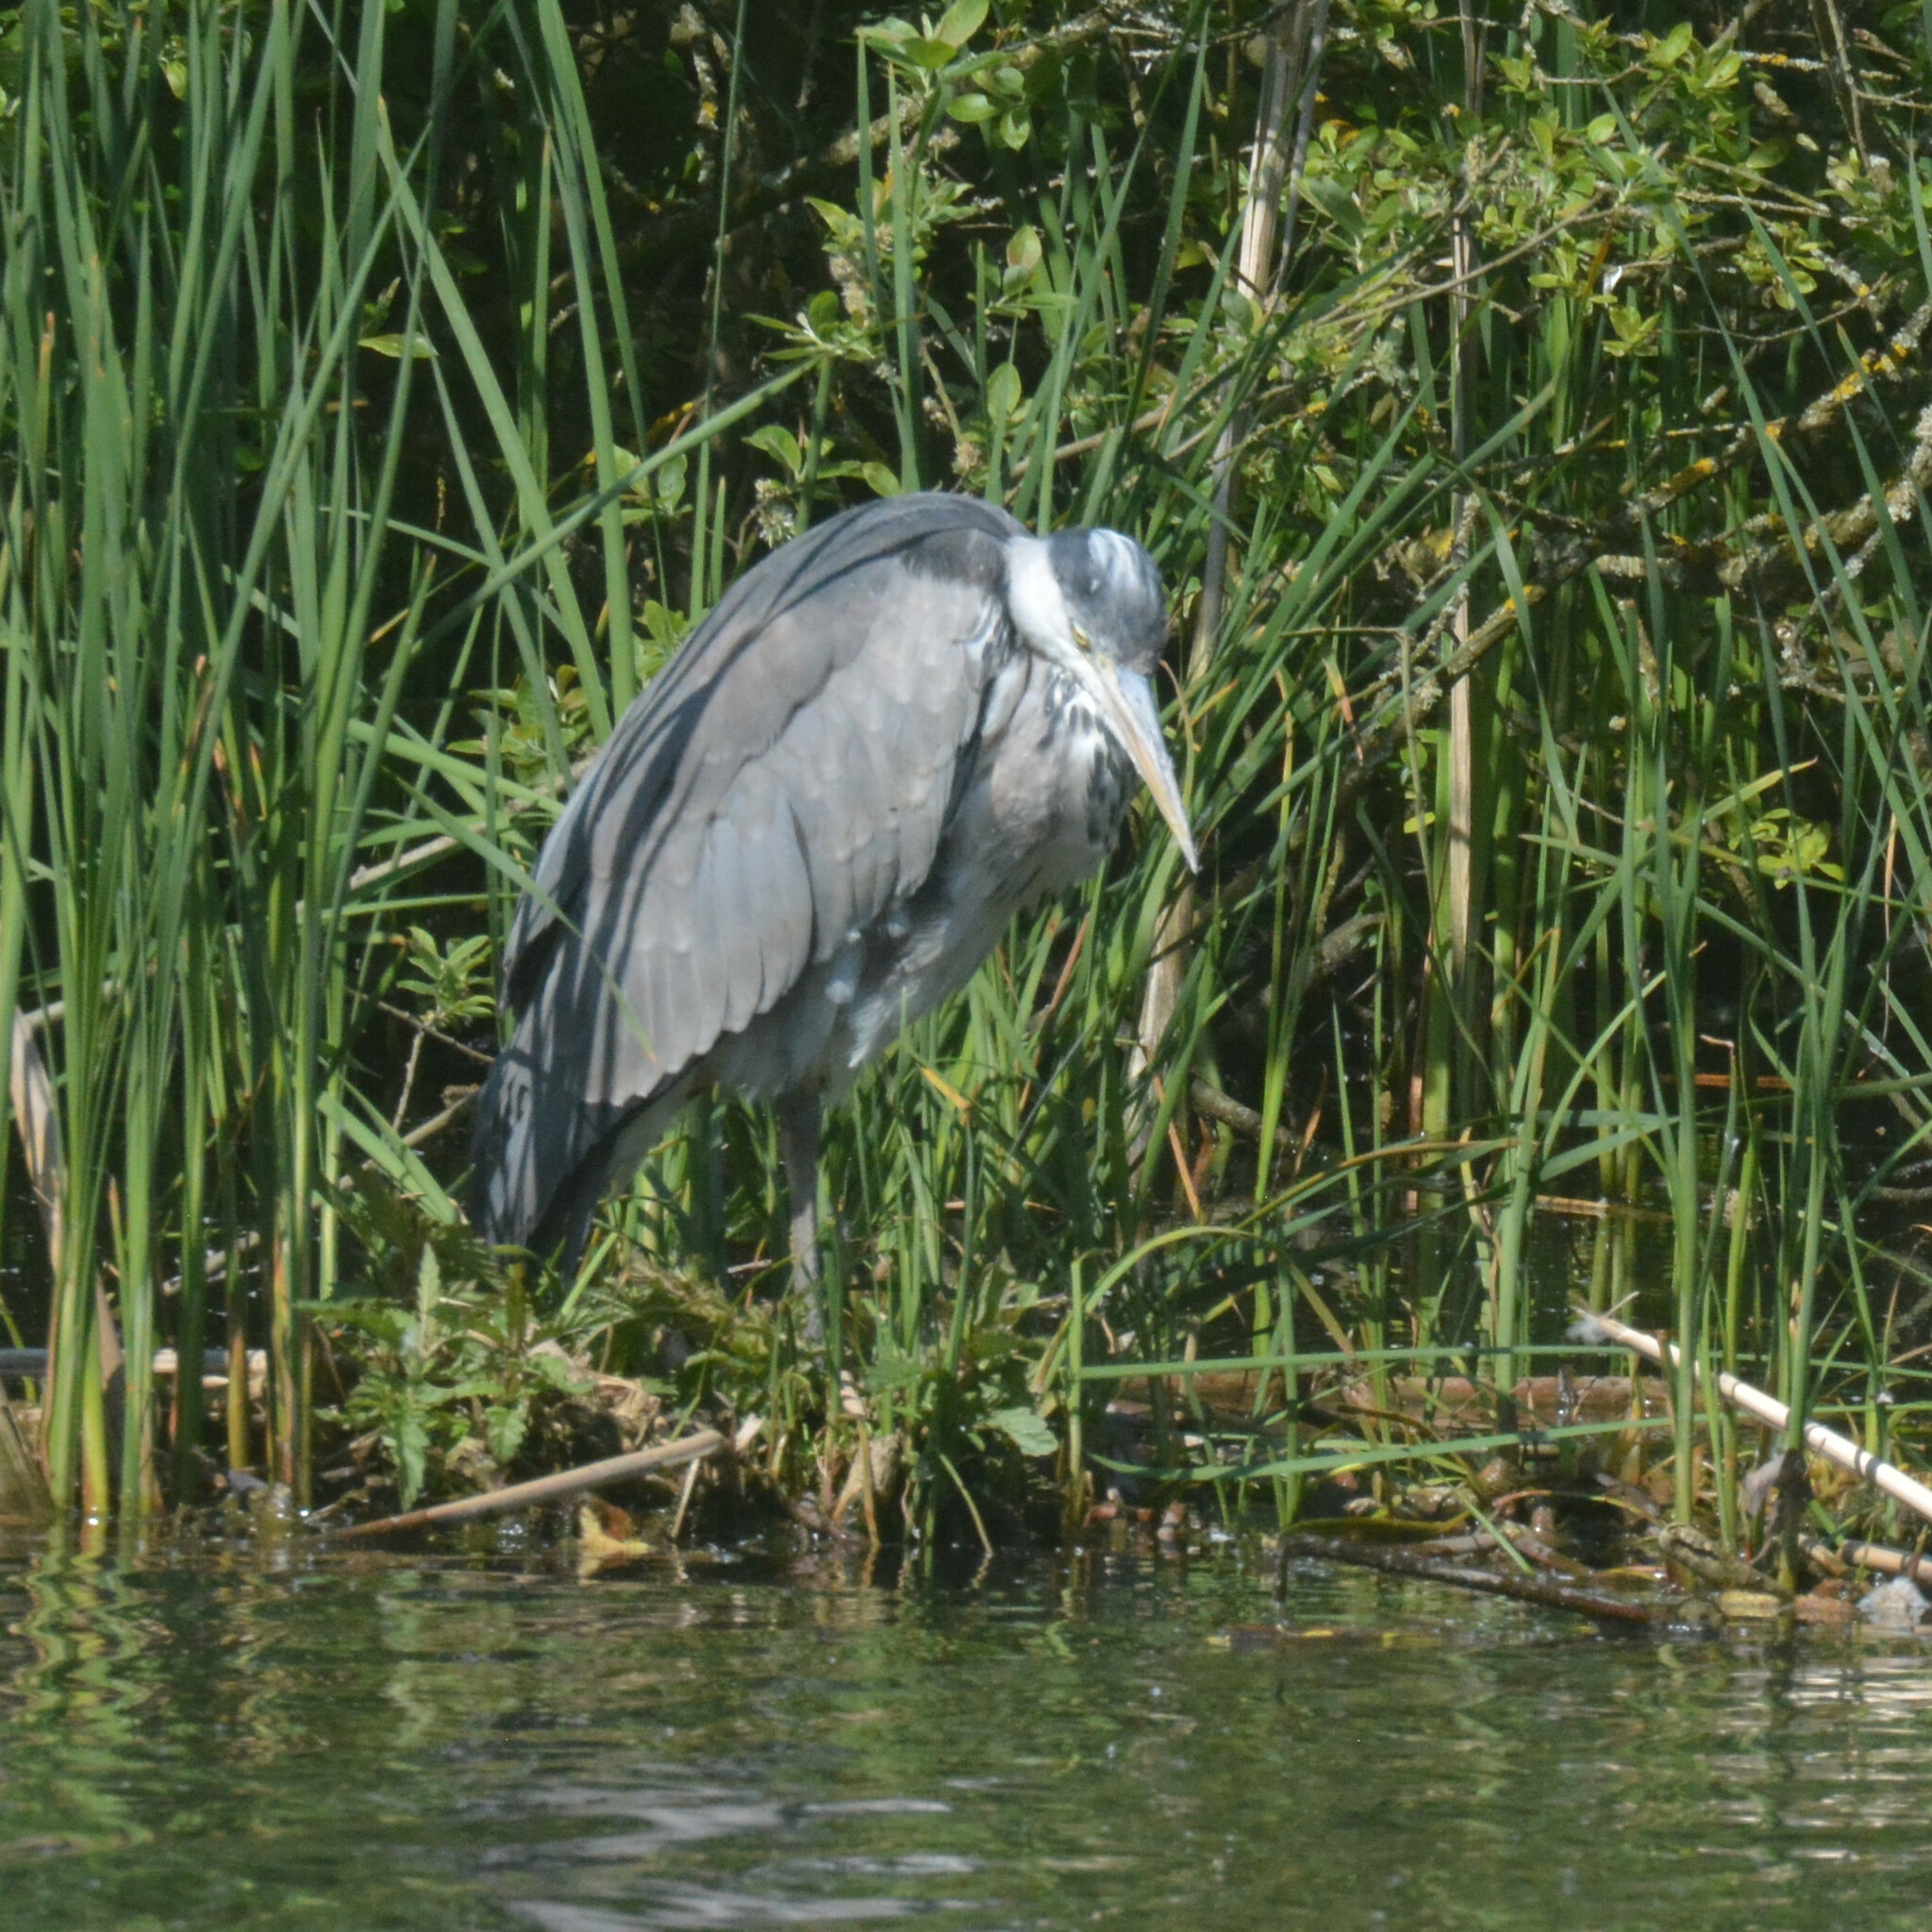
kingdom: Animalia
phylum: Chordata
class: Aves
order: Pelecaniformes
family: Ardeidae
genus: Ardea
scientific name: Ardea cinerea
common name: Grey heron
